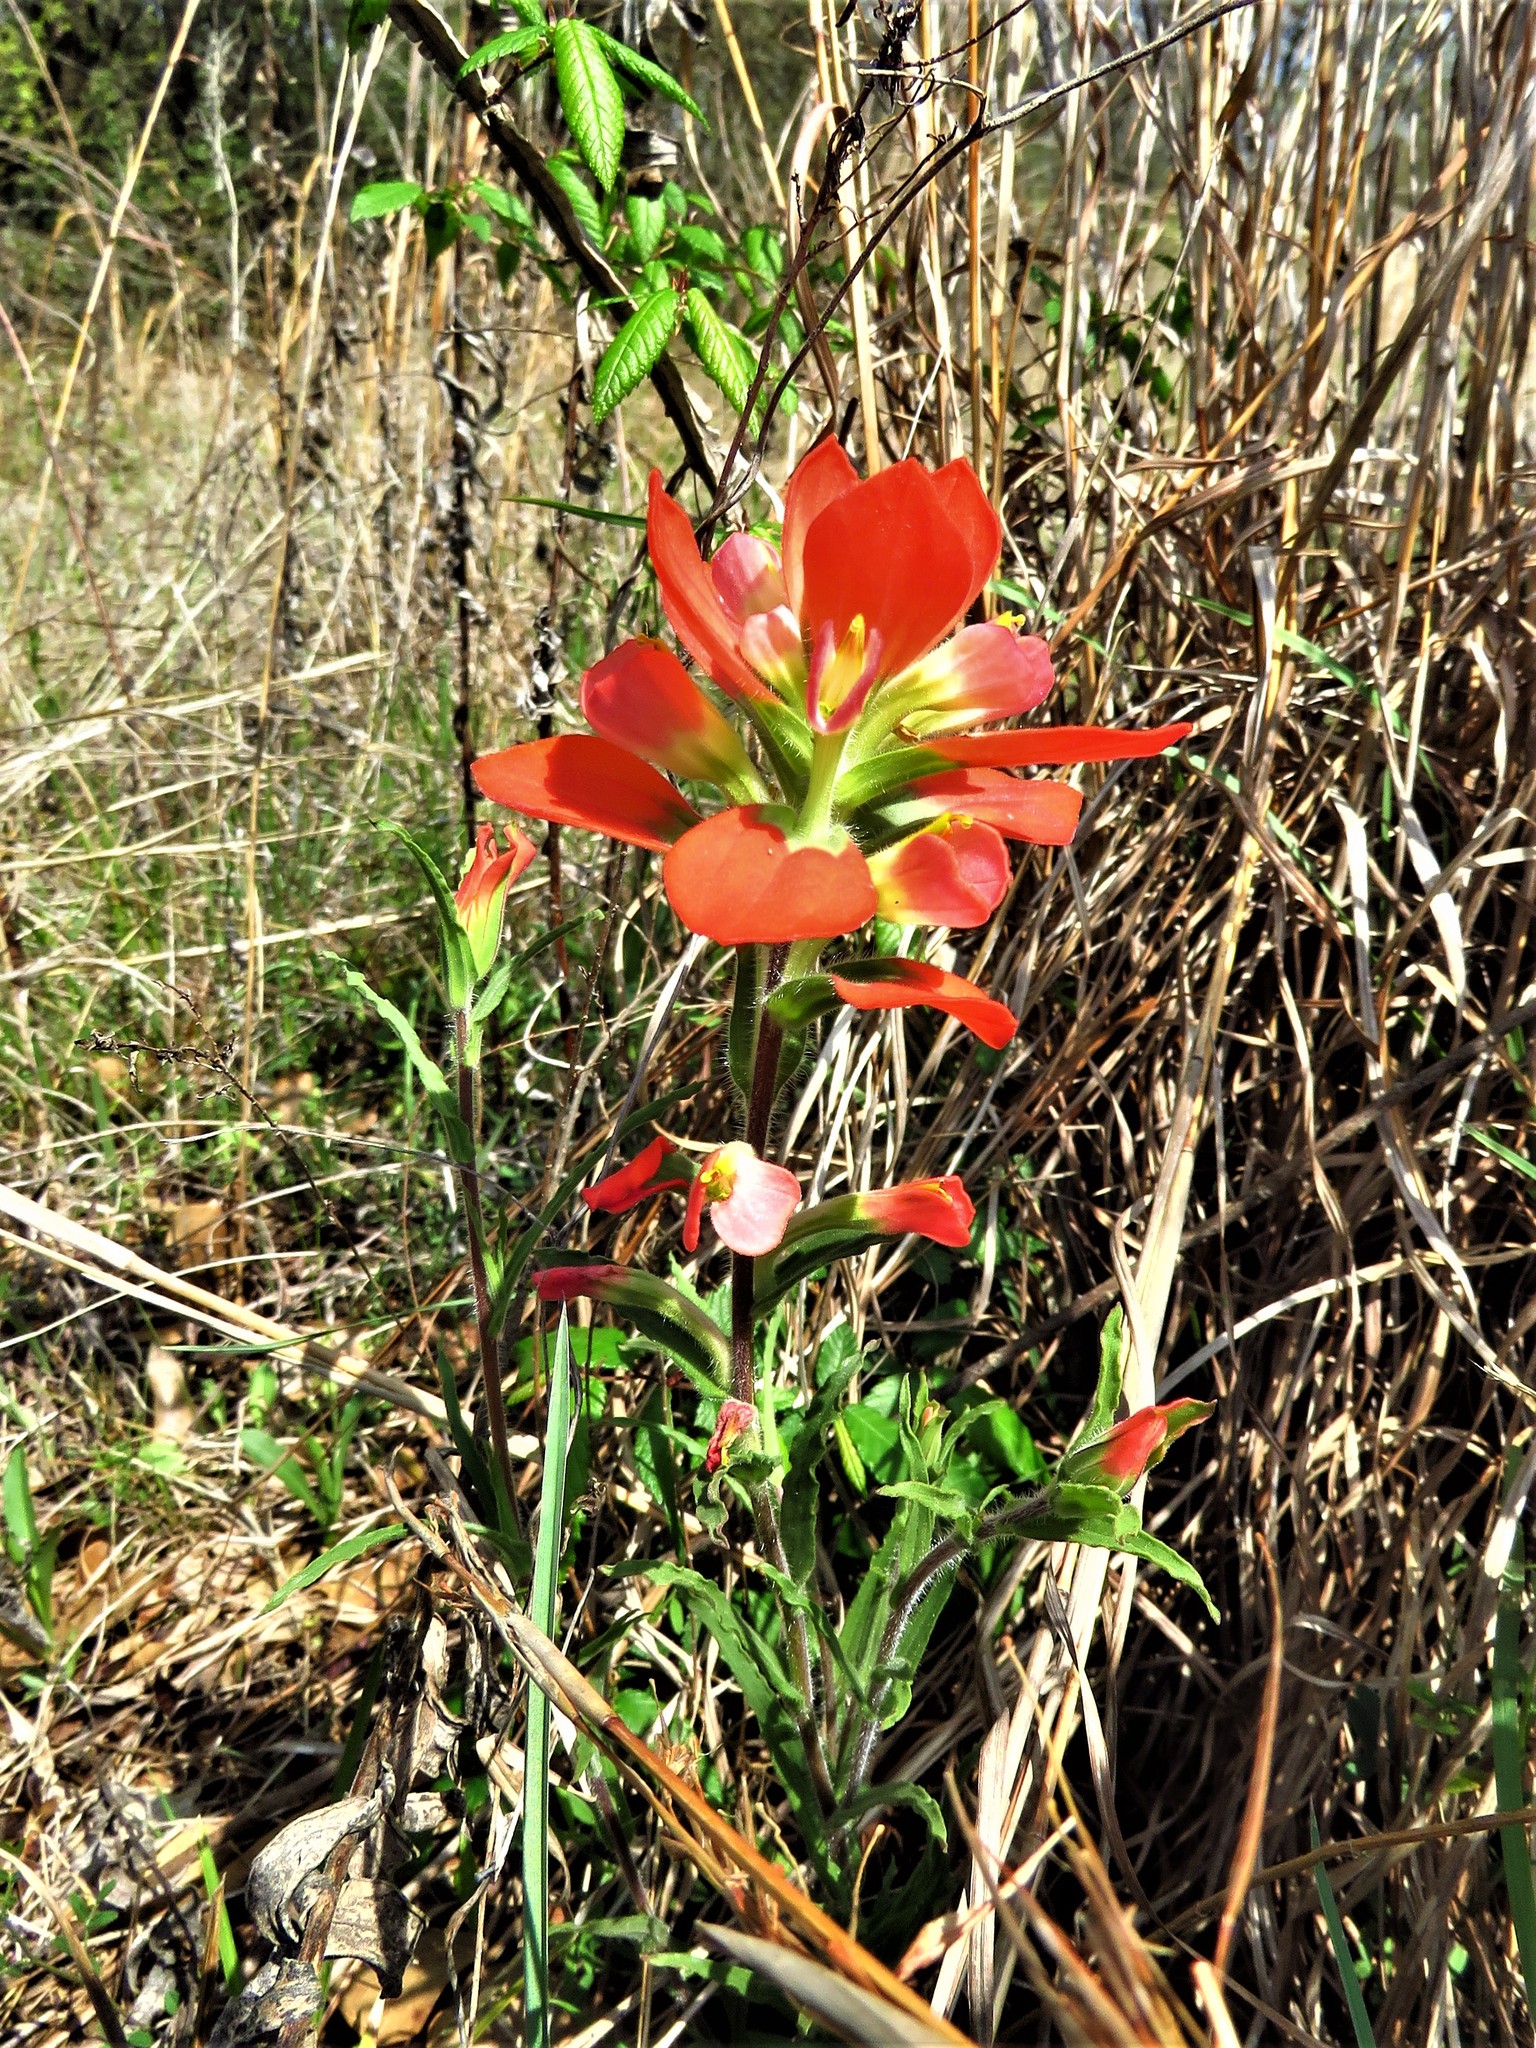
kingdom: Plantae
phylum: Tracheophyta
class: Magnoliopsida
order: Lamiales
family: Orobanchaceae
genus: Castilleja
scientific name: Castilleja indivisa
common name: Texas paintbrush
